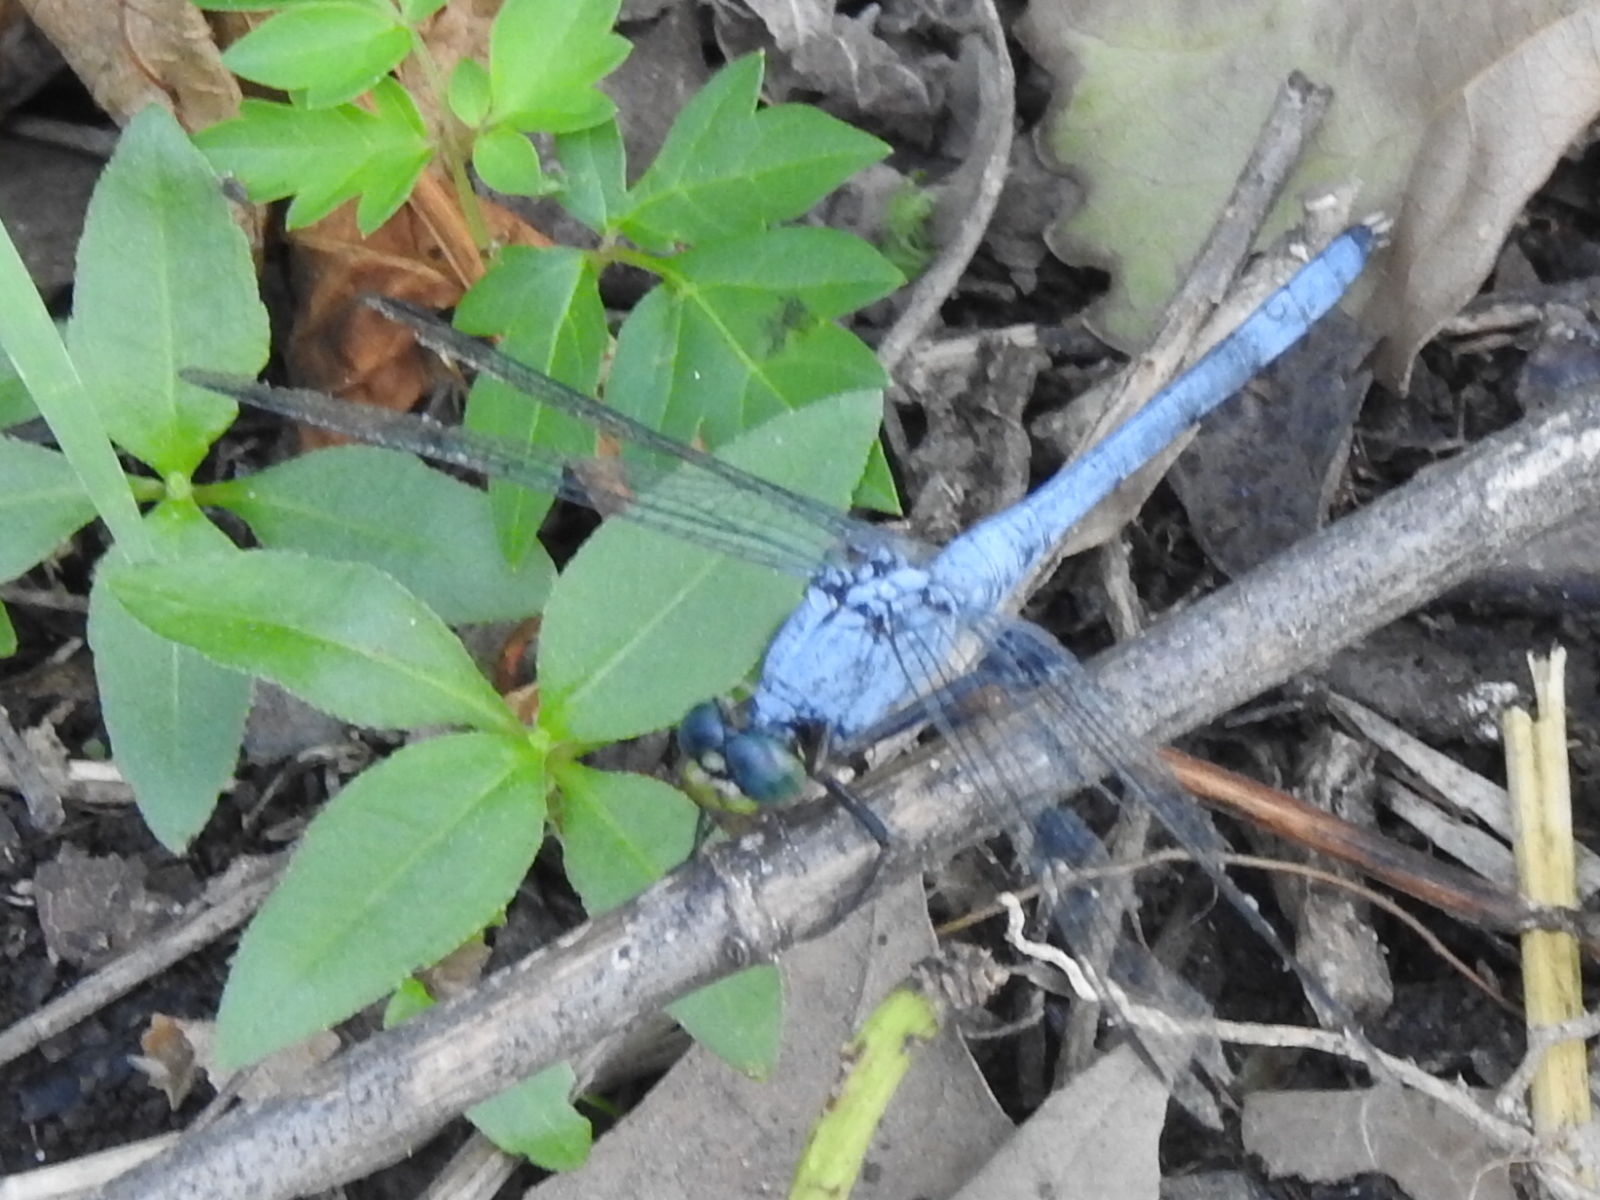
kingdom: Animalia
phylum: Arthropoda
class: Insecta
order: Odonata
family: Libellulidae
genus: Erythemis
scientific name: Erythemis simplicicollis
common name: Eastern pondhawk
